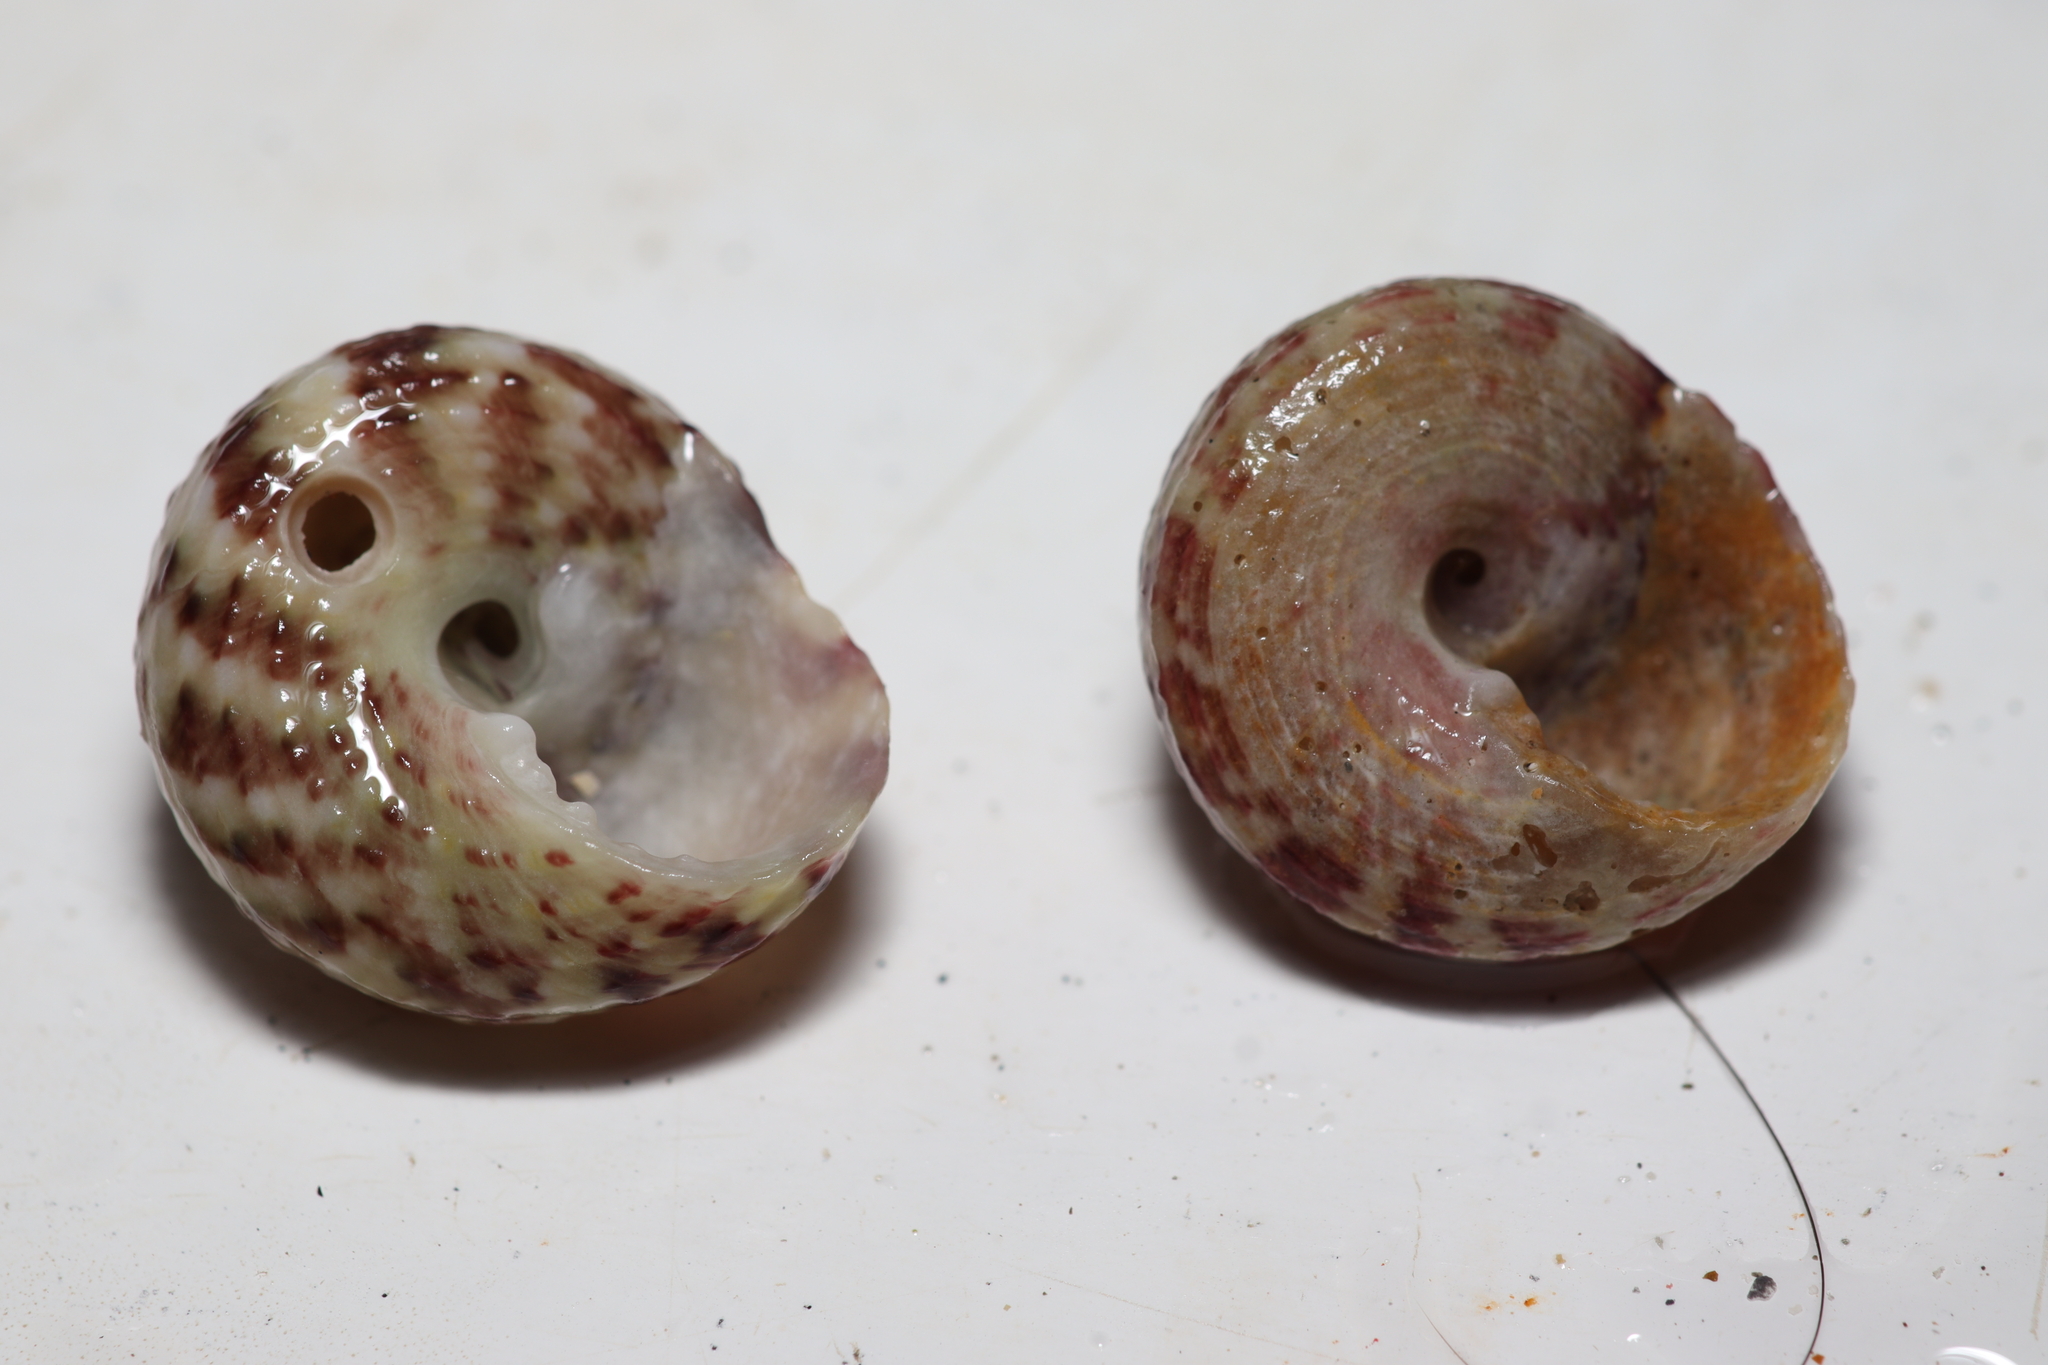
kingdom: Animalia
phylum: Mollusca
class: Gastropoda
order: Trochida
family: Tegulidae
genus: Agathistoma
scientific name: Agathistoma viridulum
